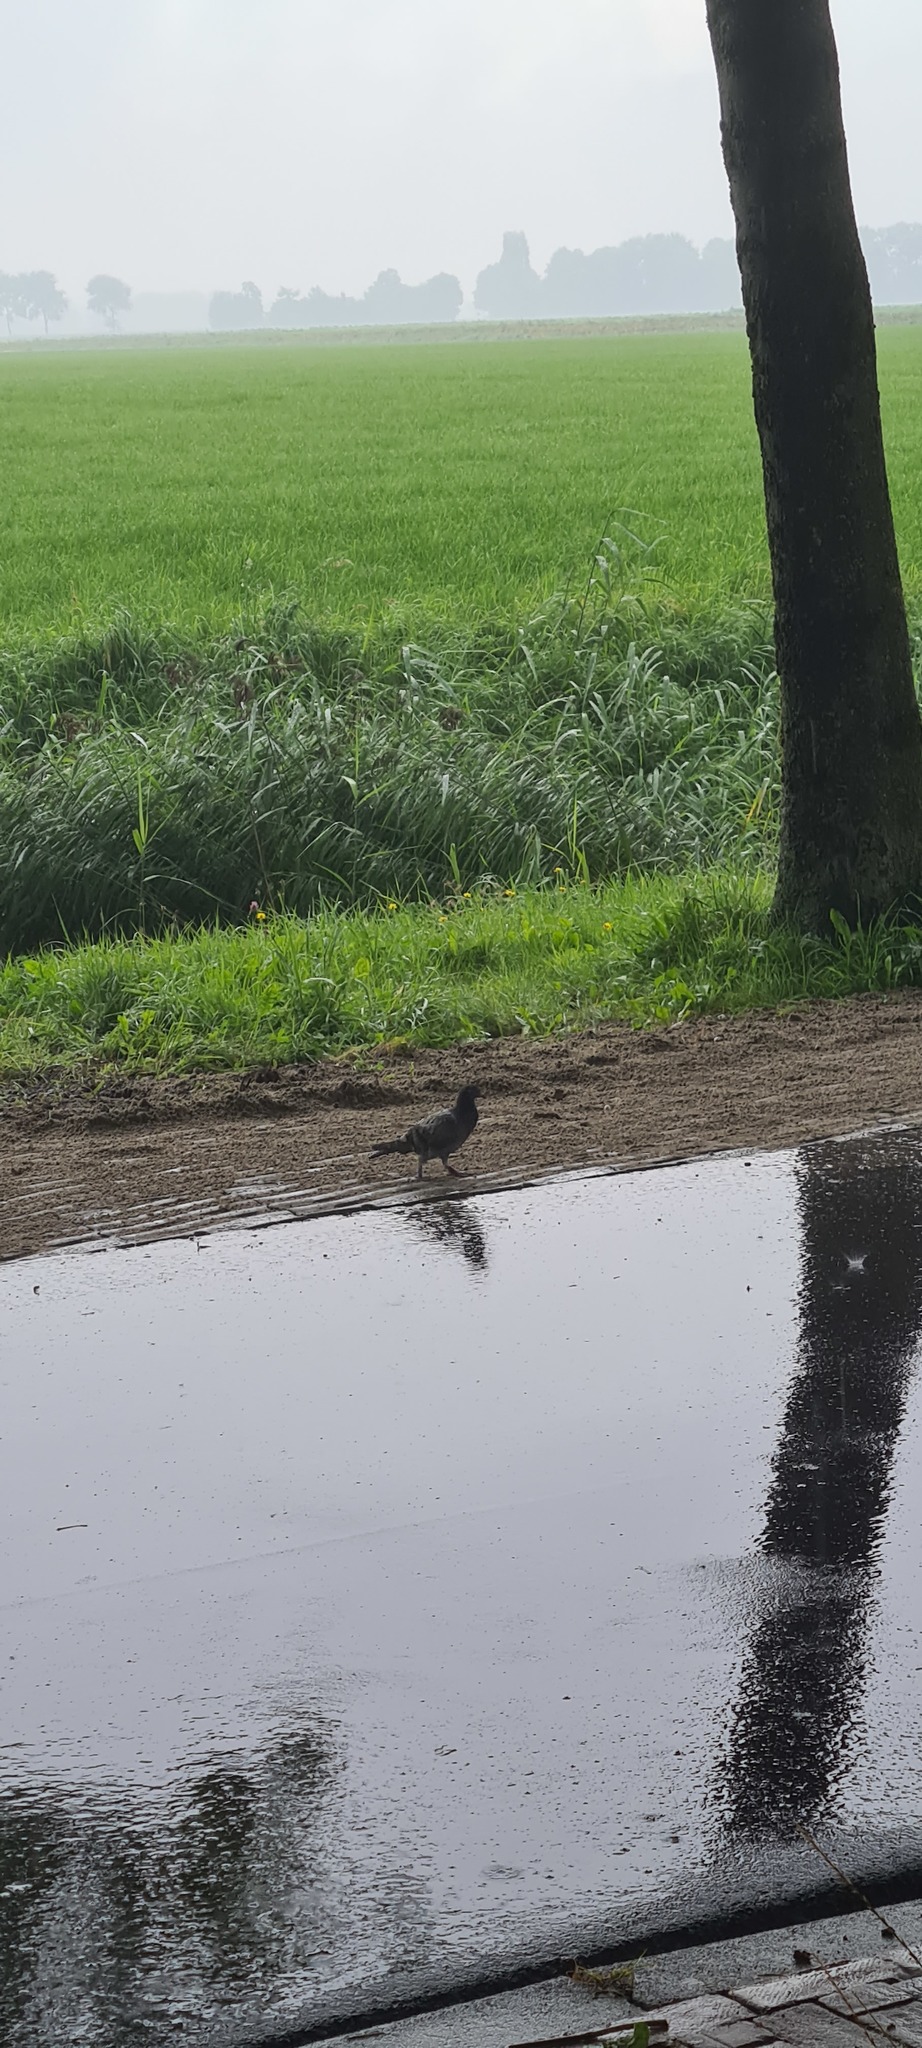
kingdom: Animalia
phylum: Chordata
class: Aves
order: Columbiformes
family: Columbidae
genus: Columba
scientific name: Columba livia
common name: Rock pigeon
